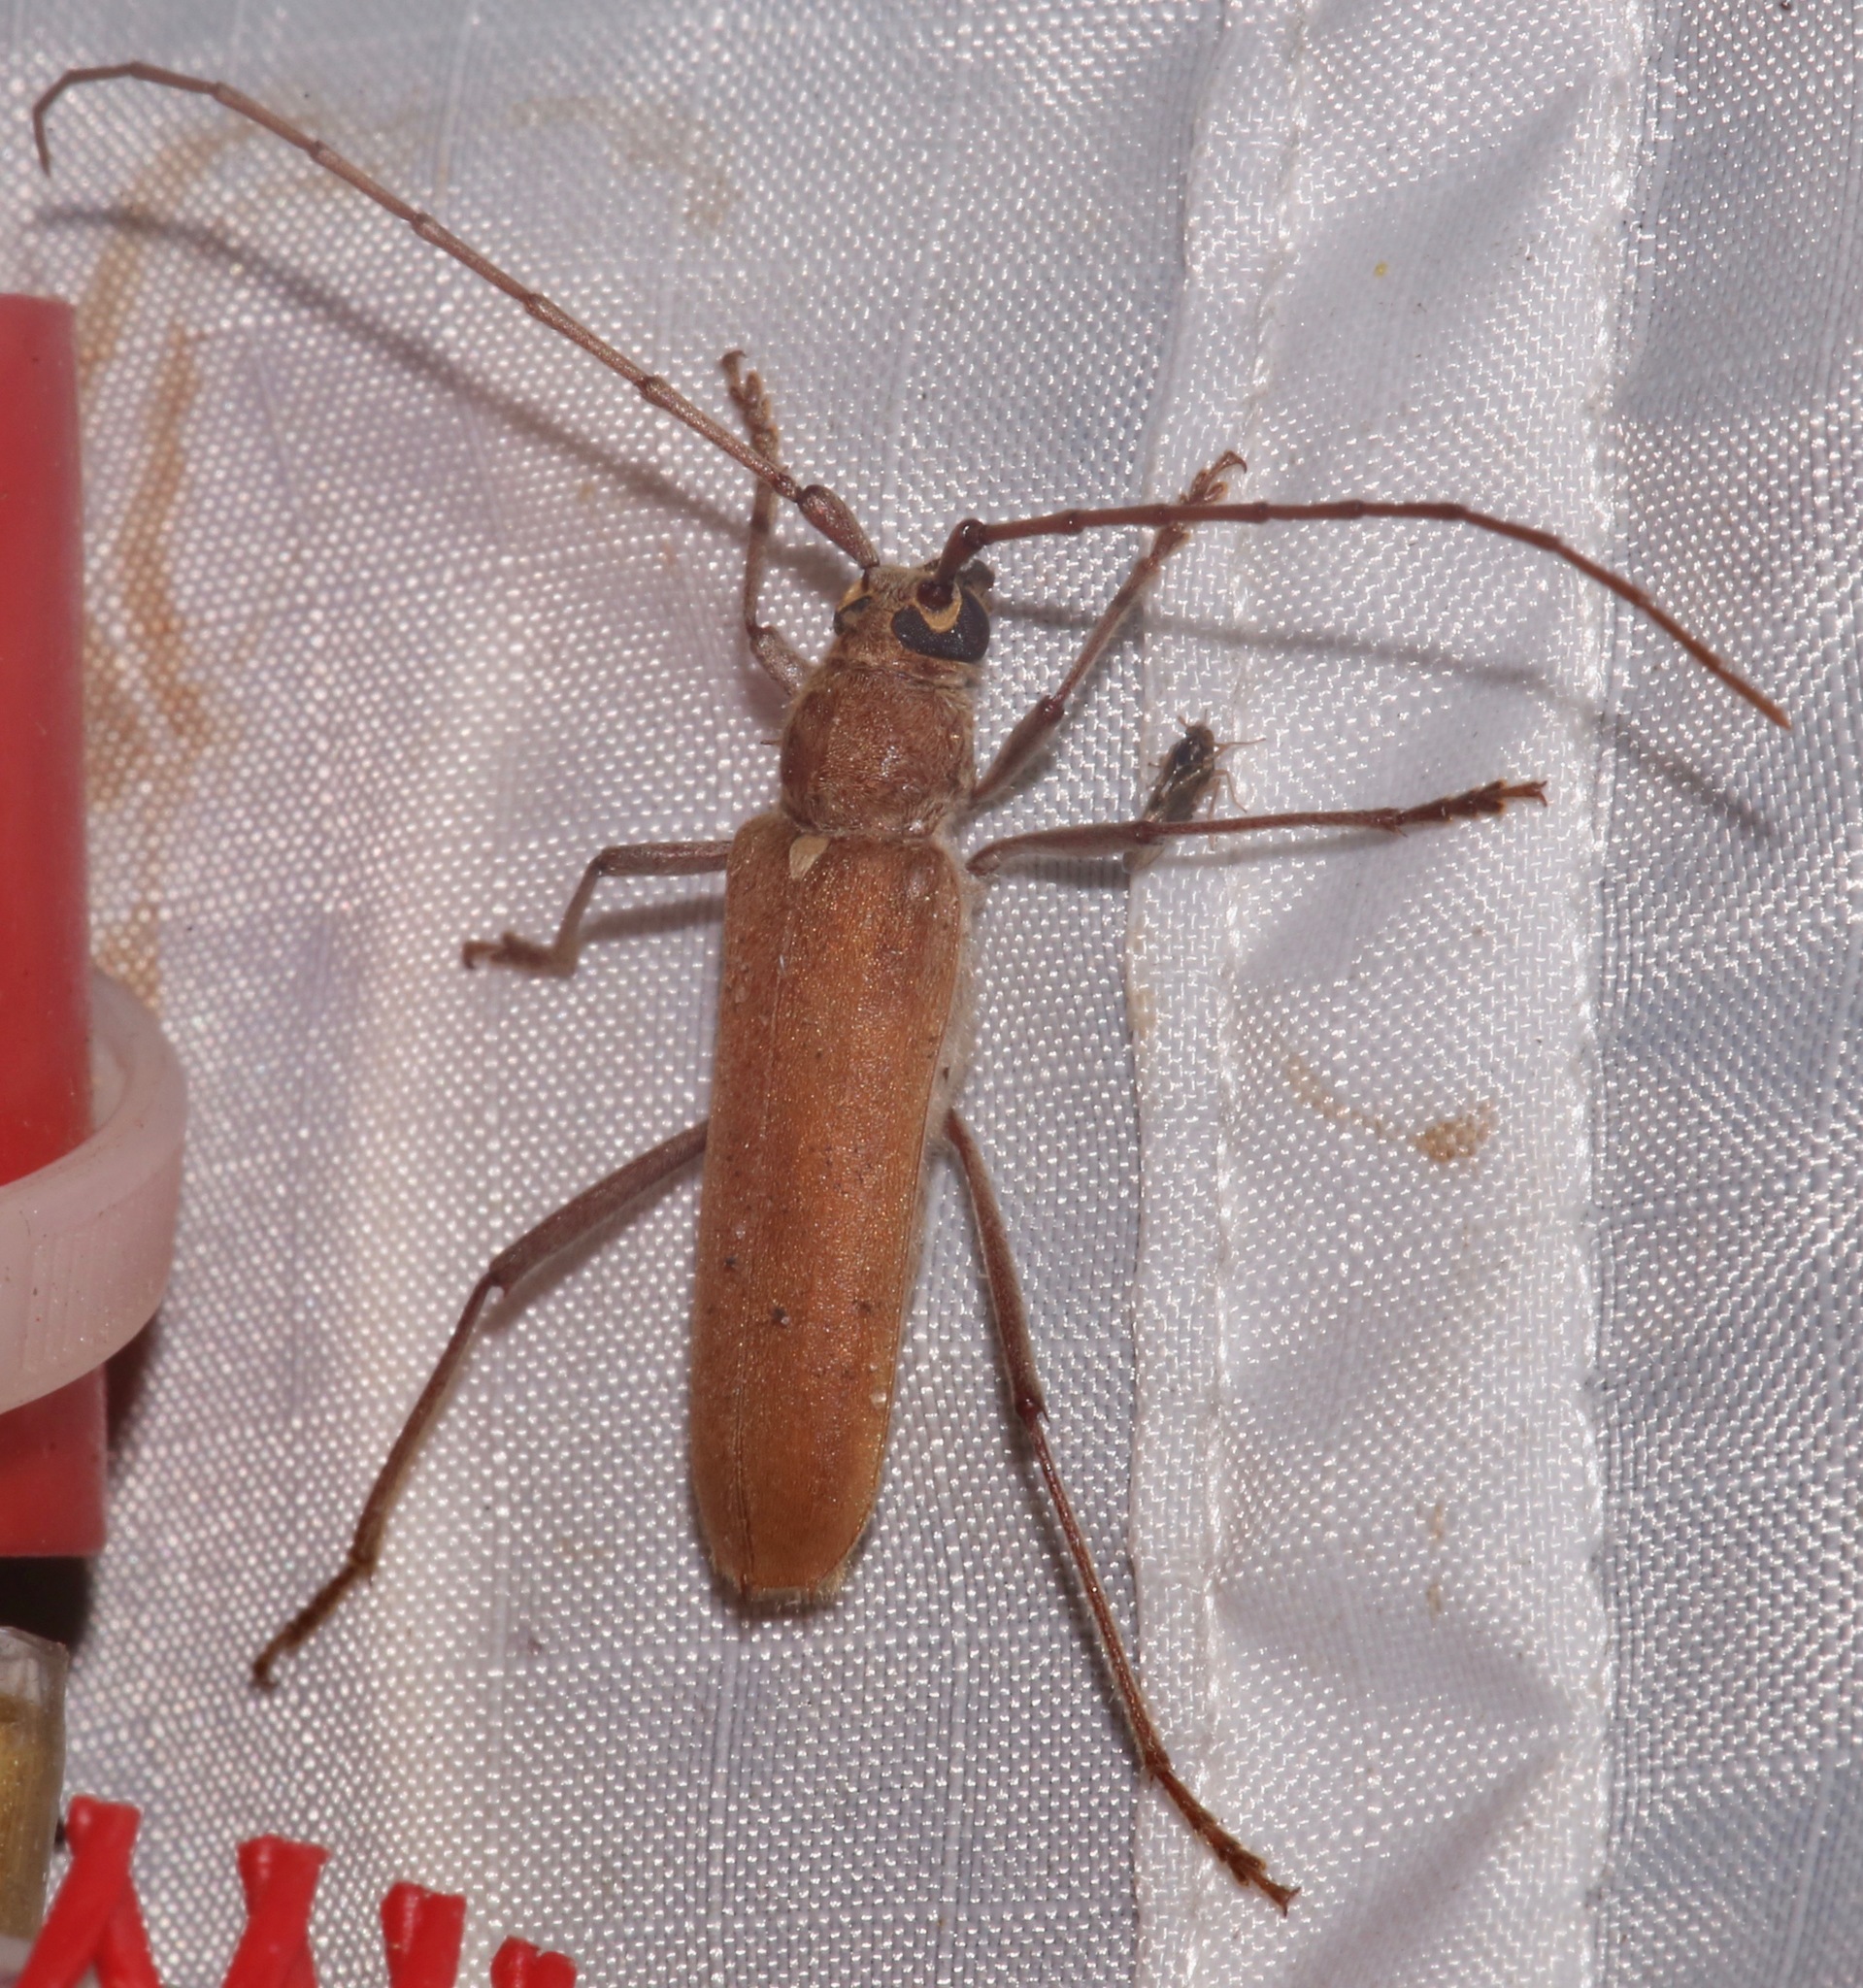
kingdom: Animalia
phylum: Arthropoda
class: Insecta
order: Coleoptera
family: Cerambycidae
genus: Knulliana
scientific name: Knulliana cincta
